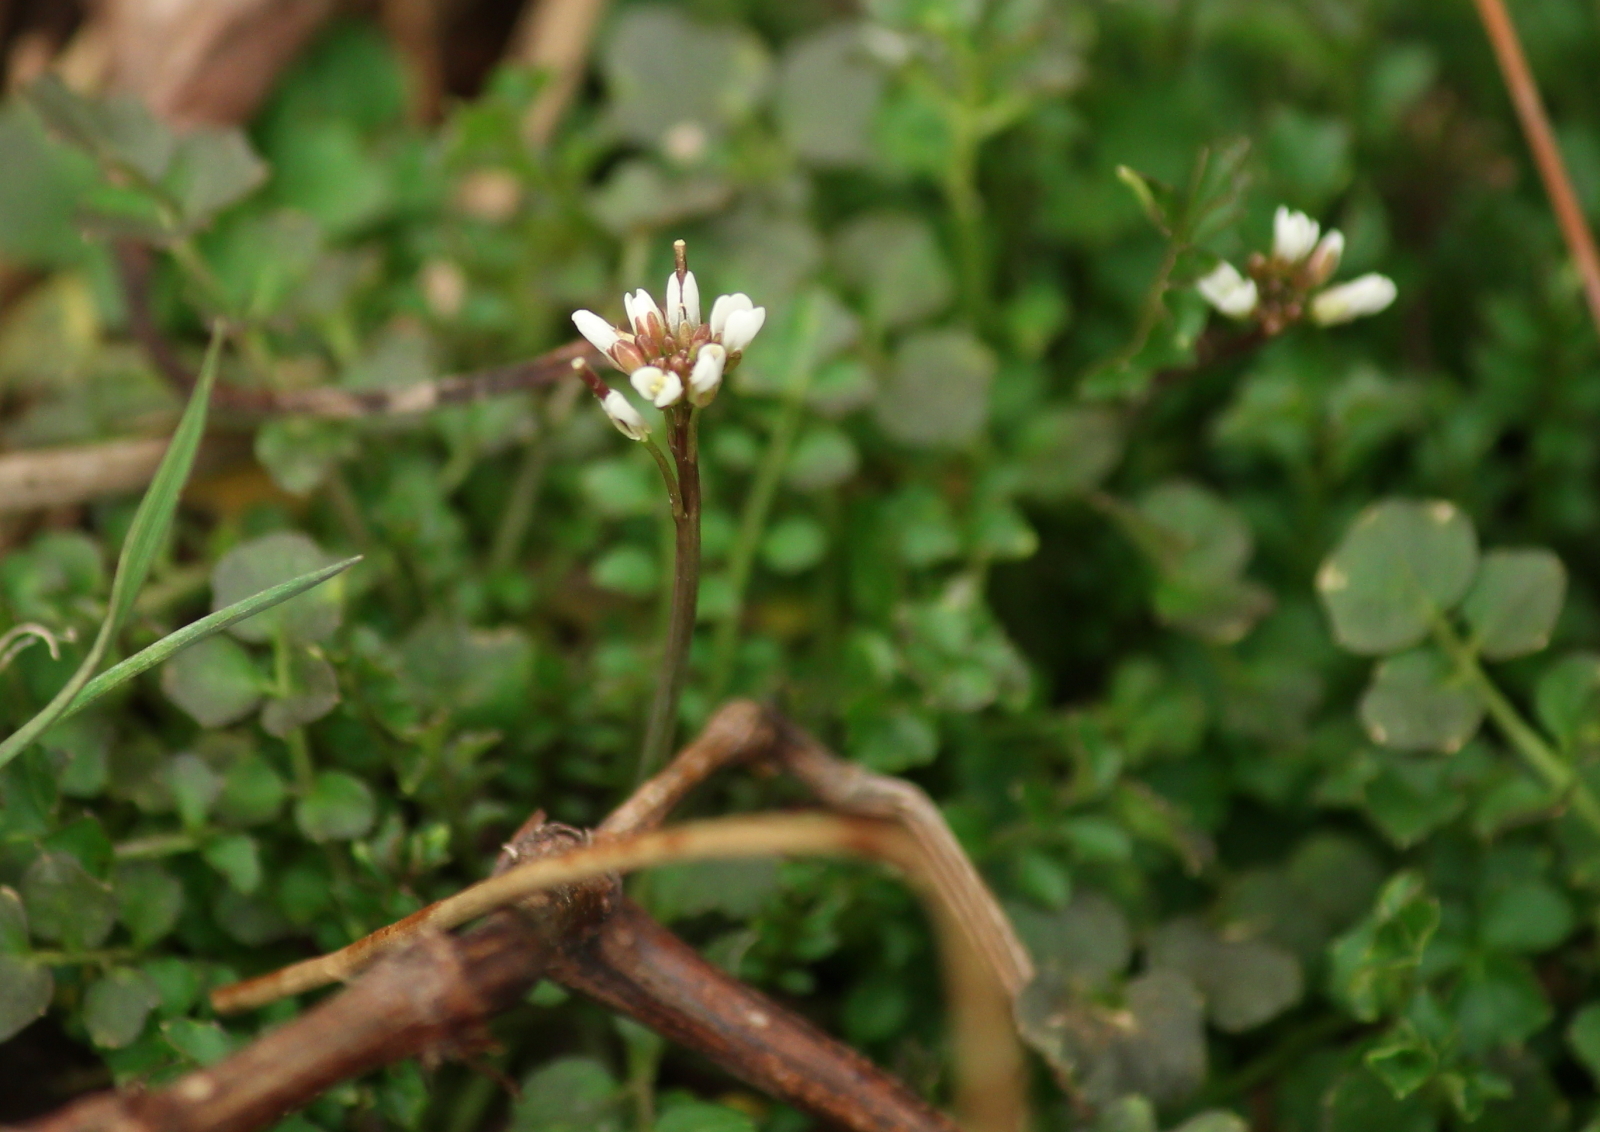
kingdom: Plantae
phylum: Tracheophyta
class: Magnoliopsida
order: Brassicales
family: Brassicaceae
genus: Cardamine
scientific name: Cardamine hirsuta
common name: Hairy bittercress
